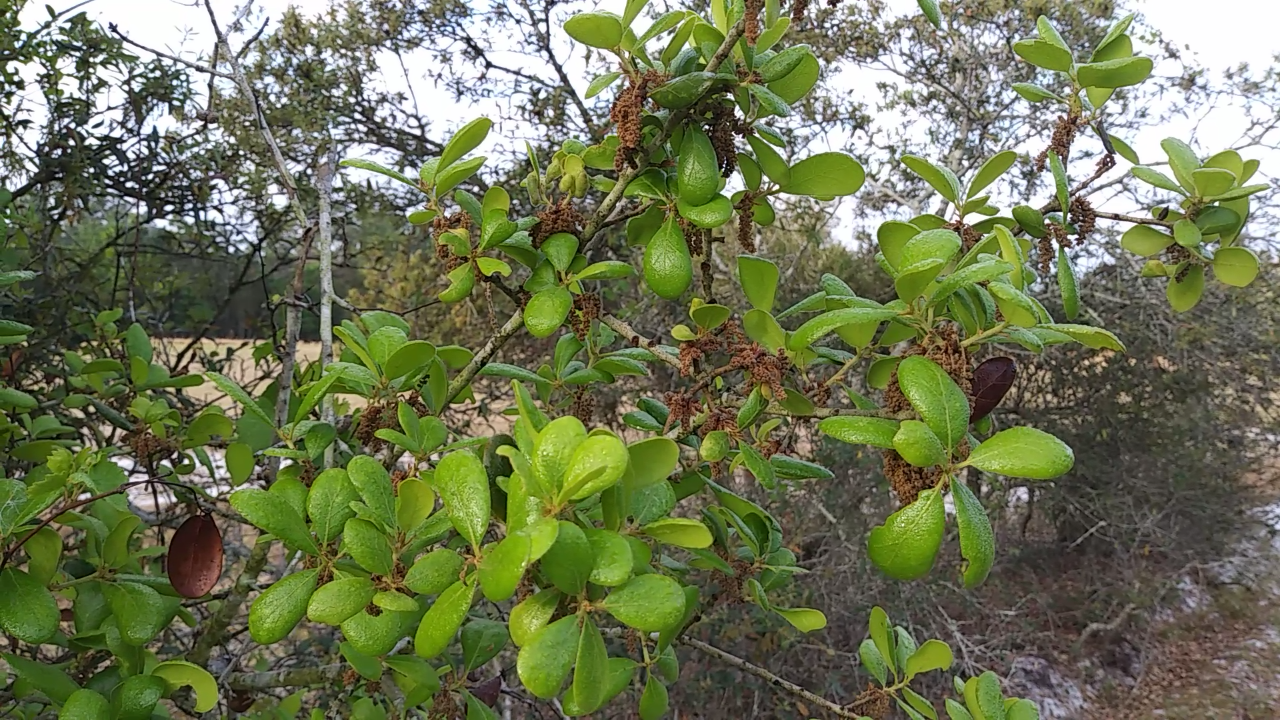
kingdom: Plantae
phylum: Tracheophyta
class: Magnoliopsida
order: Fagales
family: Fagaceae
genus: Quercus
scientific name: Quercus myrtifolia
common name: Myrtle oak
